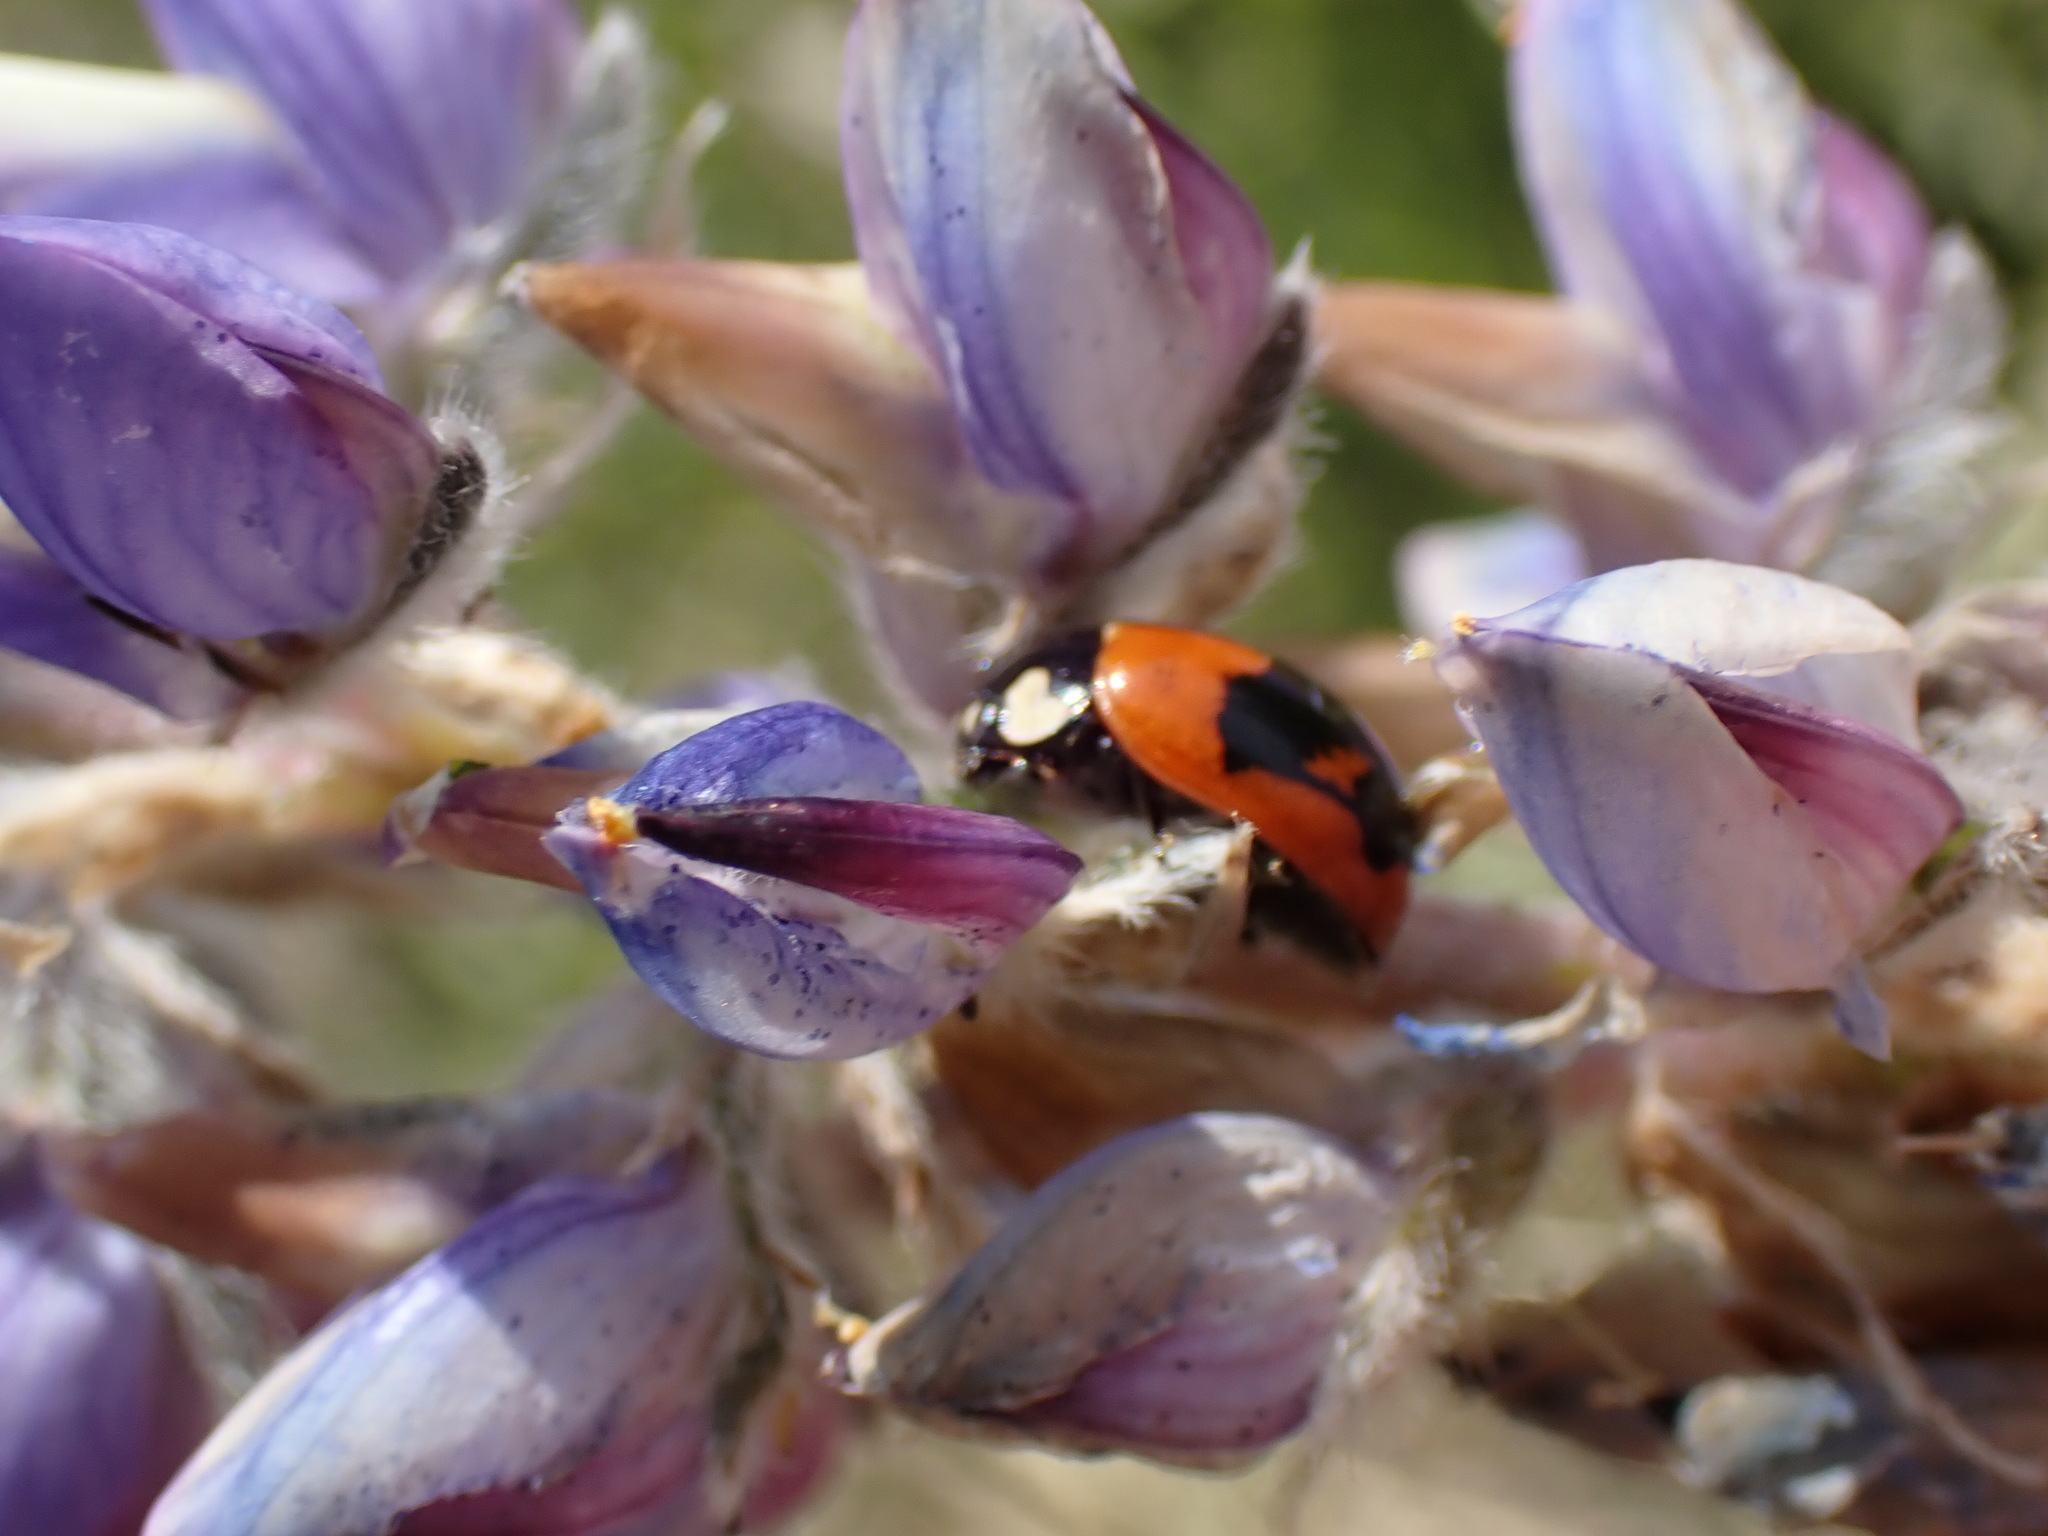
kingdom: Animalia
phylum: Arthropoda
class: Insecta
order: Coleoptera
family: Coccinellidae
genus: Coccinella
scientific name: Coccinella alta
